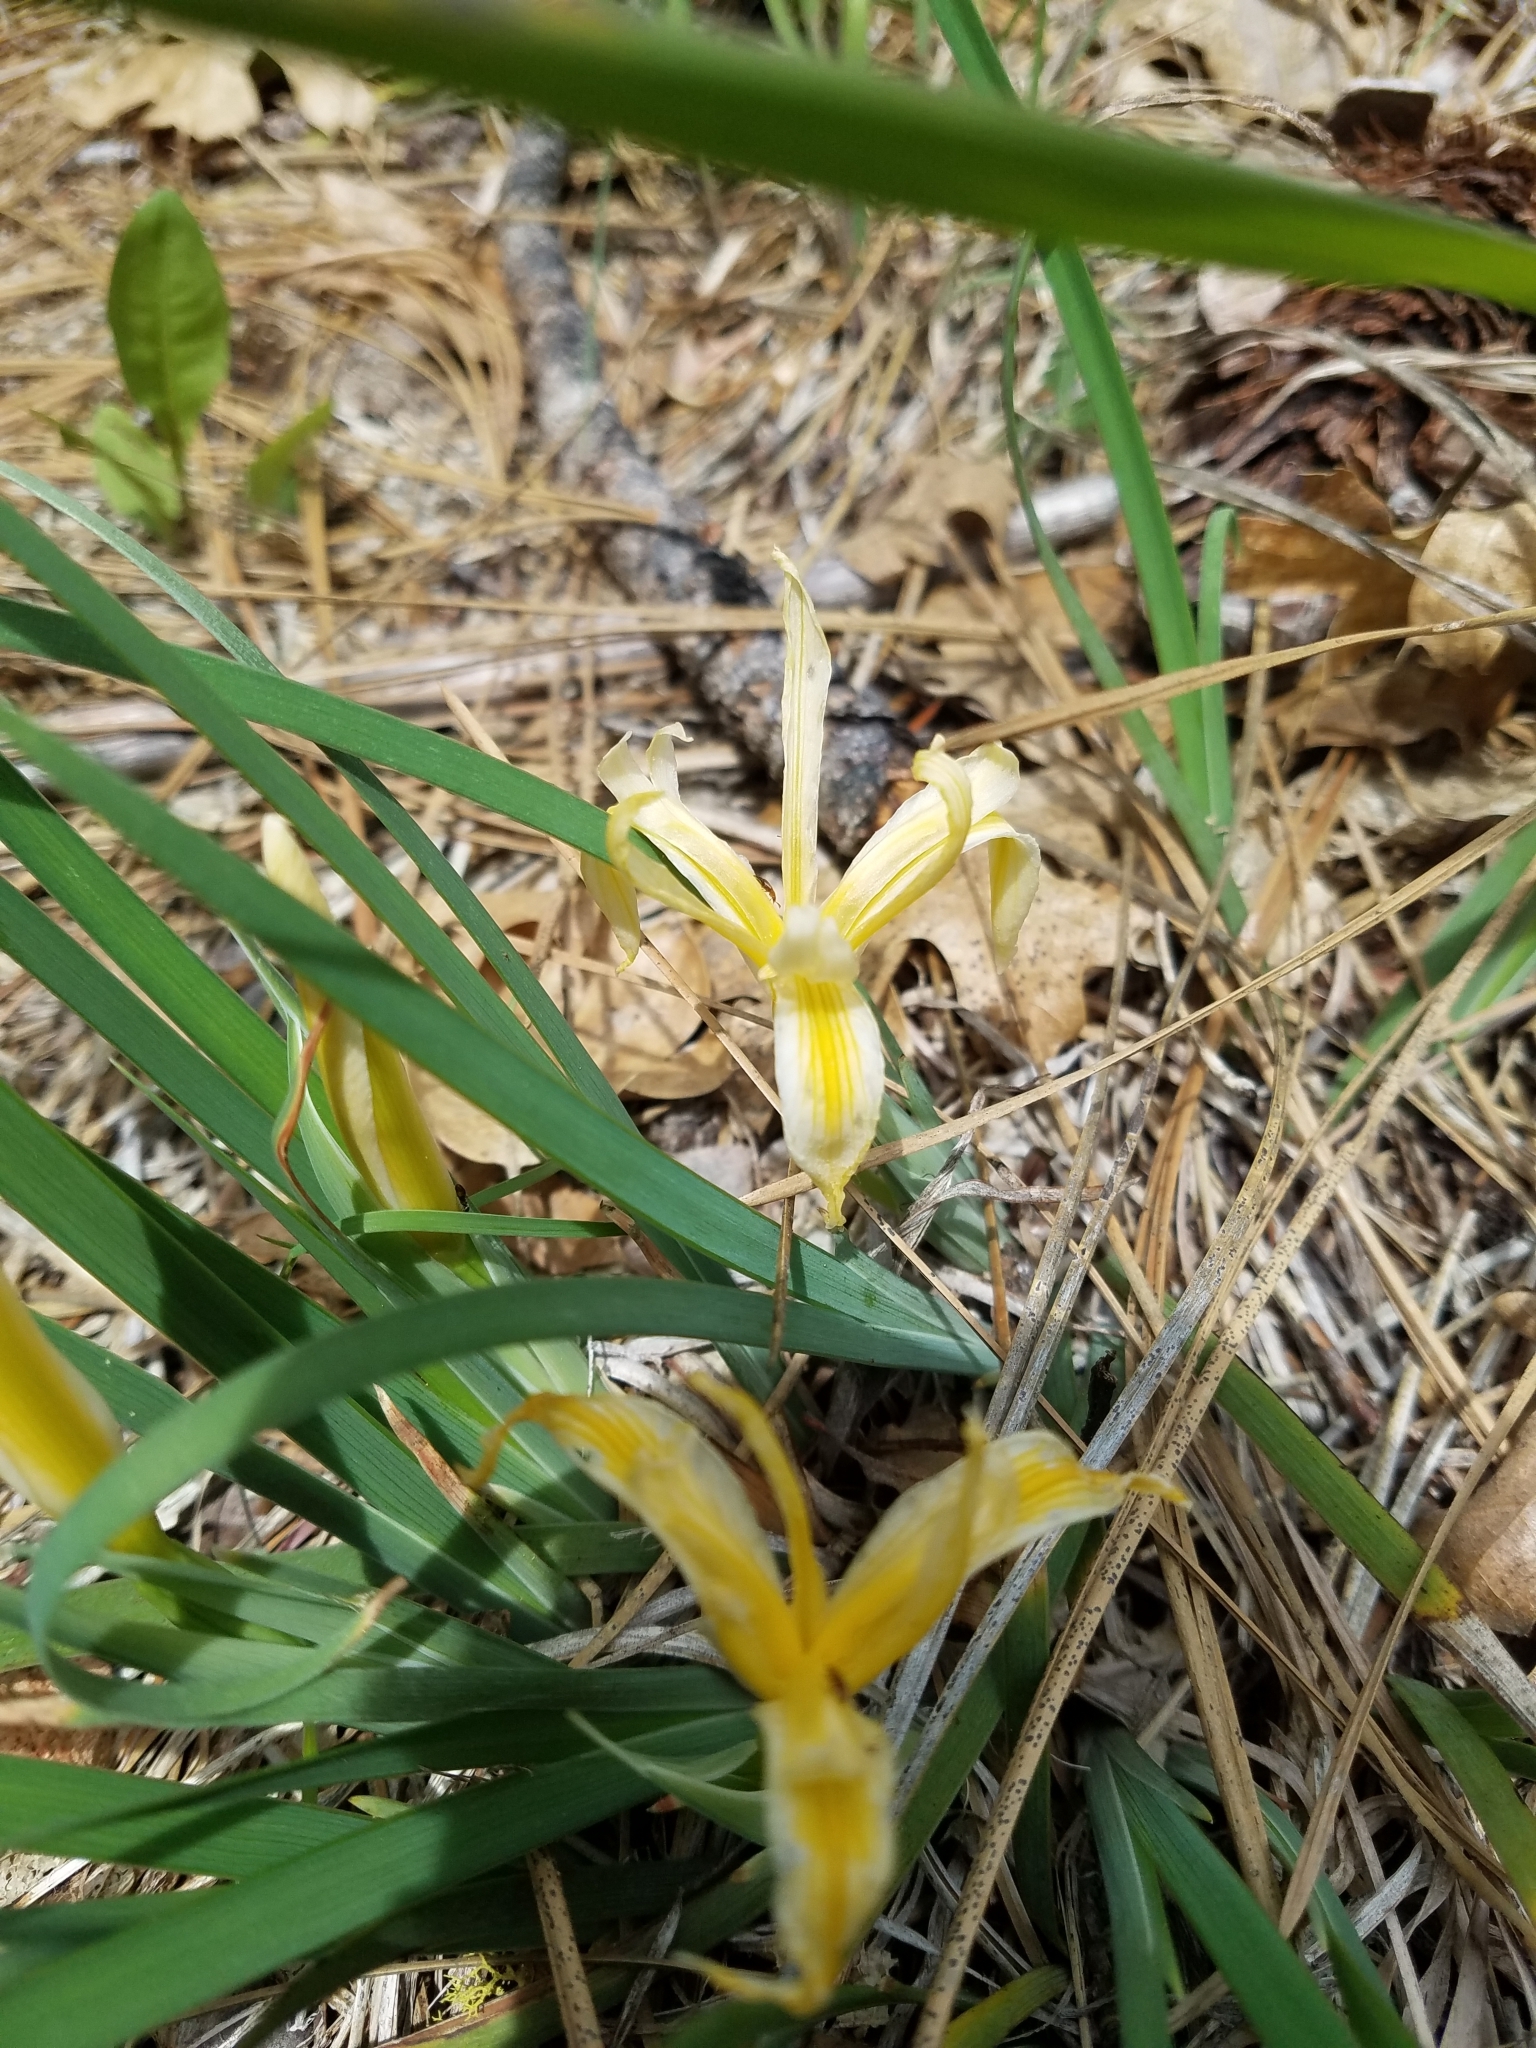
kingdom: Plantae
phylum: Tracheophyta
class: Liliopsida
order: Asparagales
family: Iridaceae
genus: Iris
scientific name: Iris hartwegii
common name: Sierra iris
